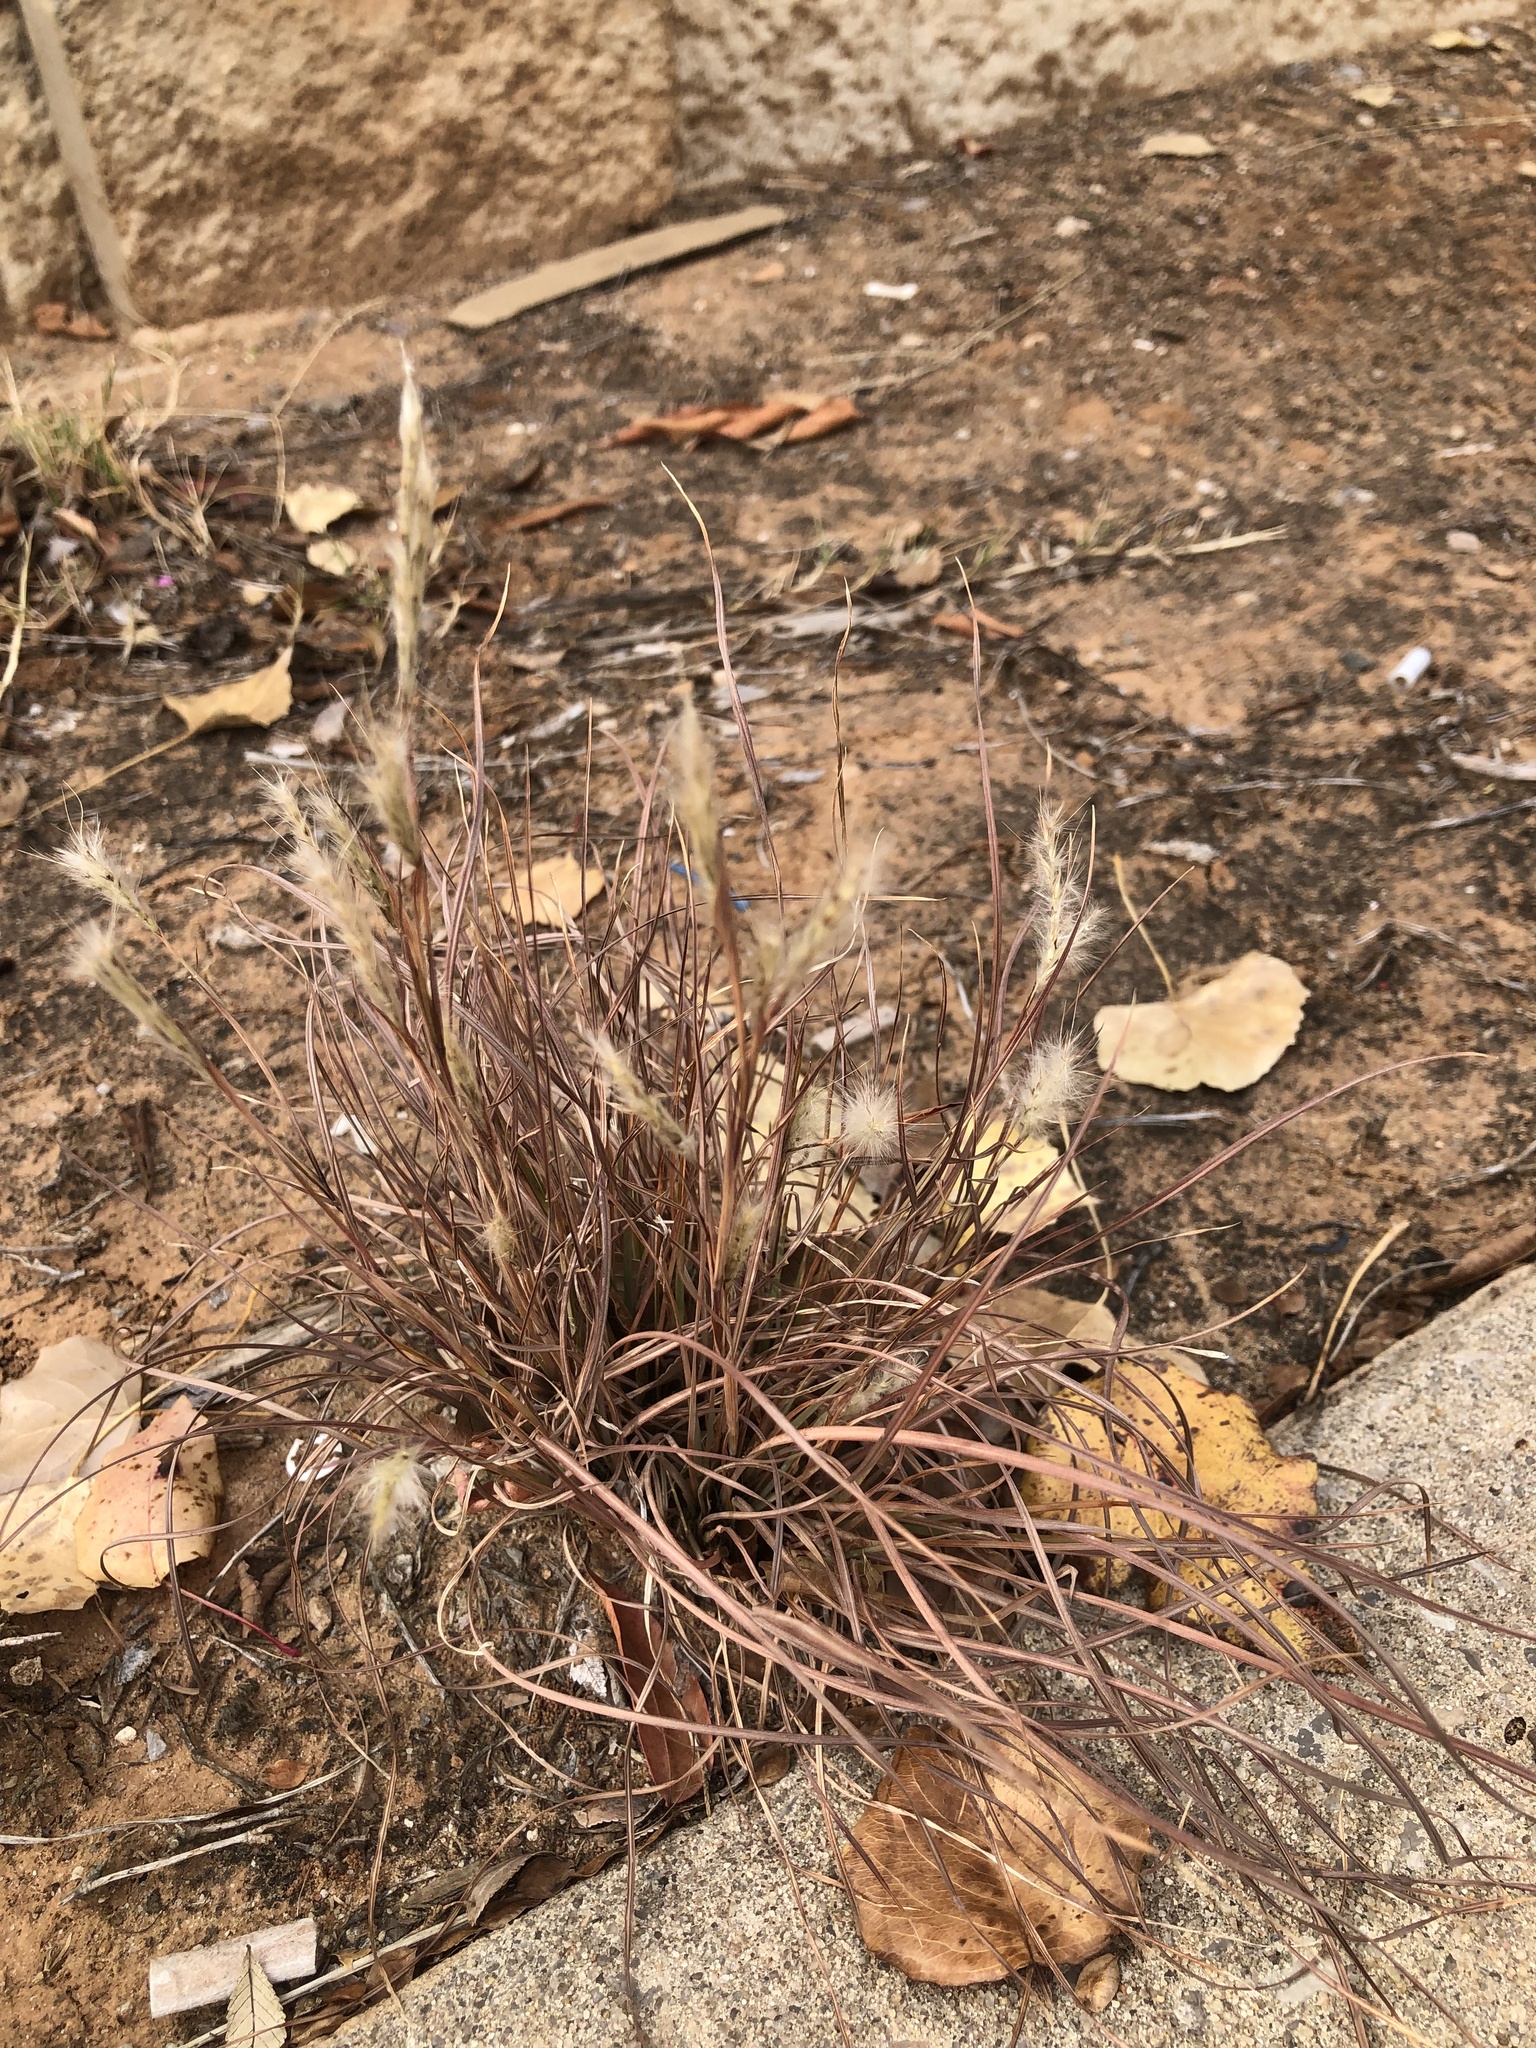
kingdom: Plantae
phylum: Tracheophyta
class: Liliopsida
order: Poales
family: Poaceae
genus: Bothriochloa
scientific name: Bothriochloa torreyana
